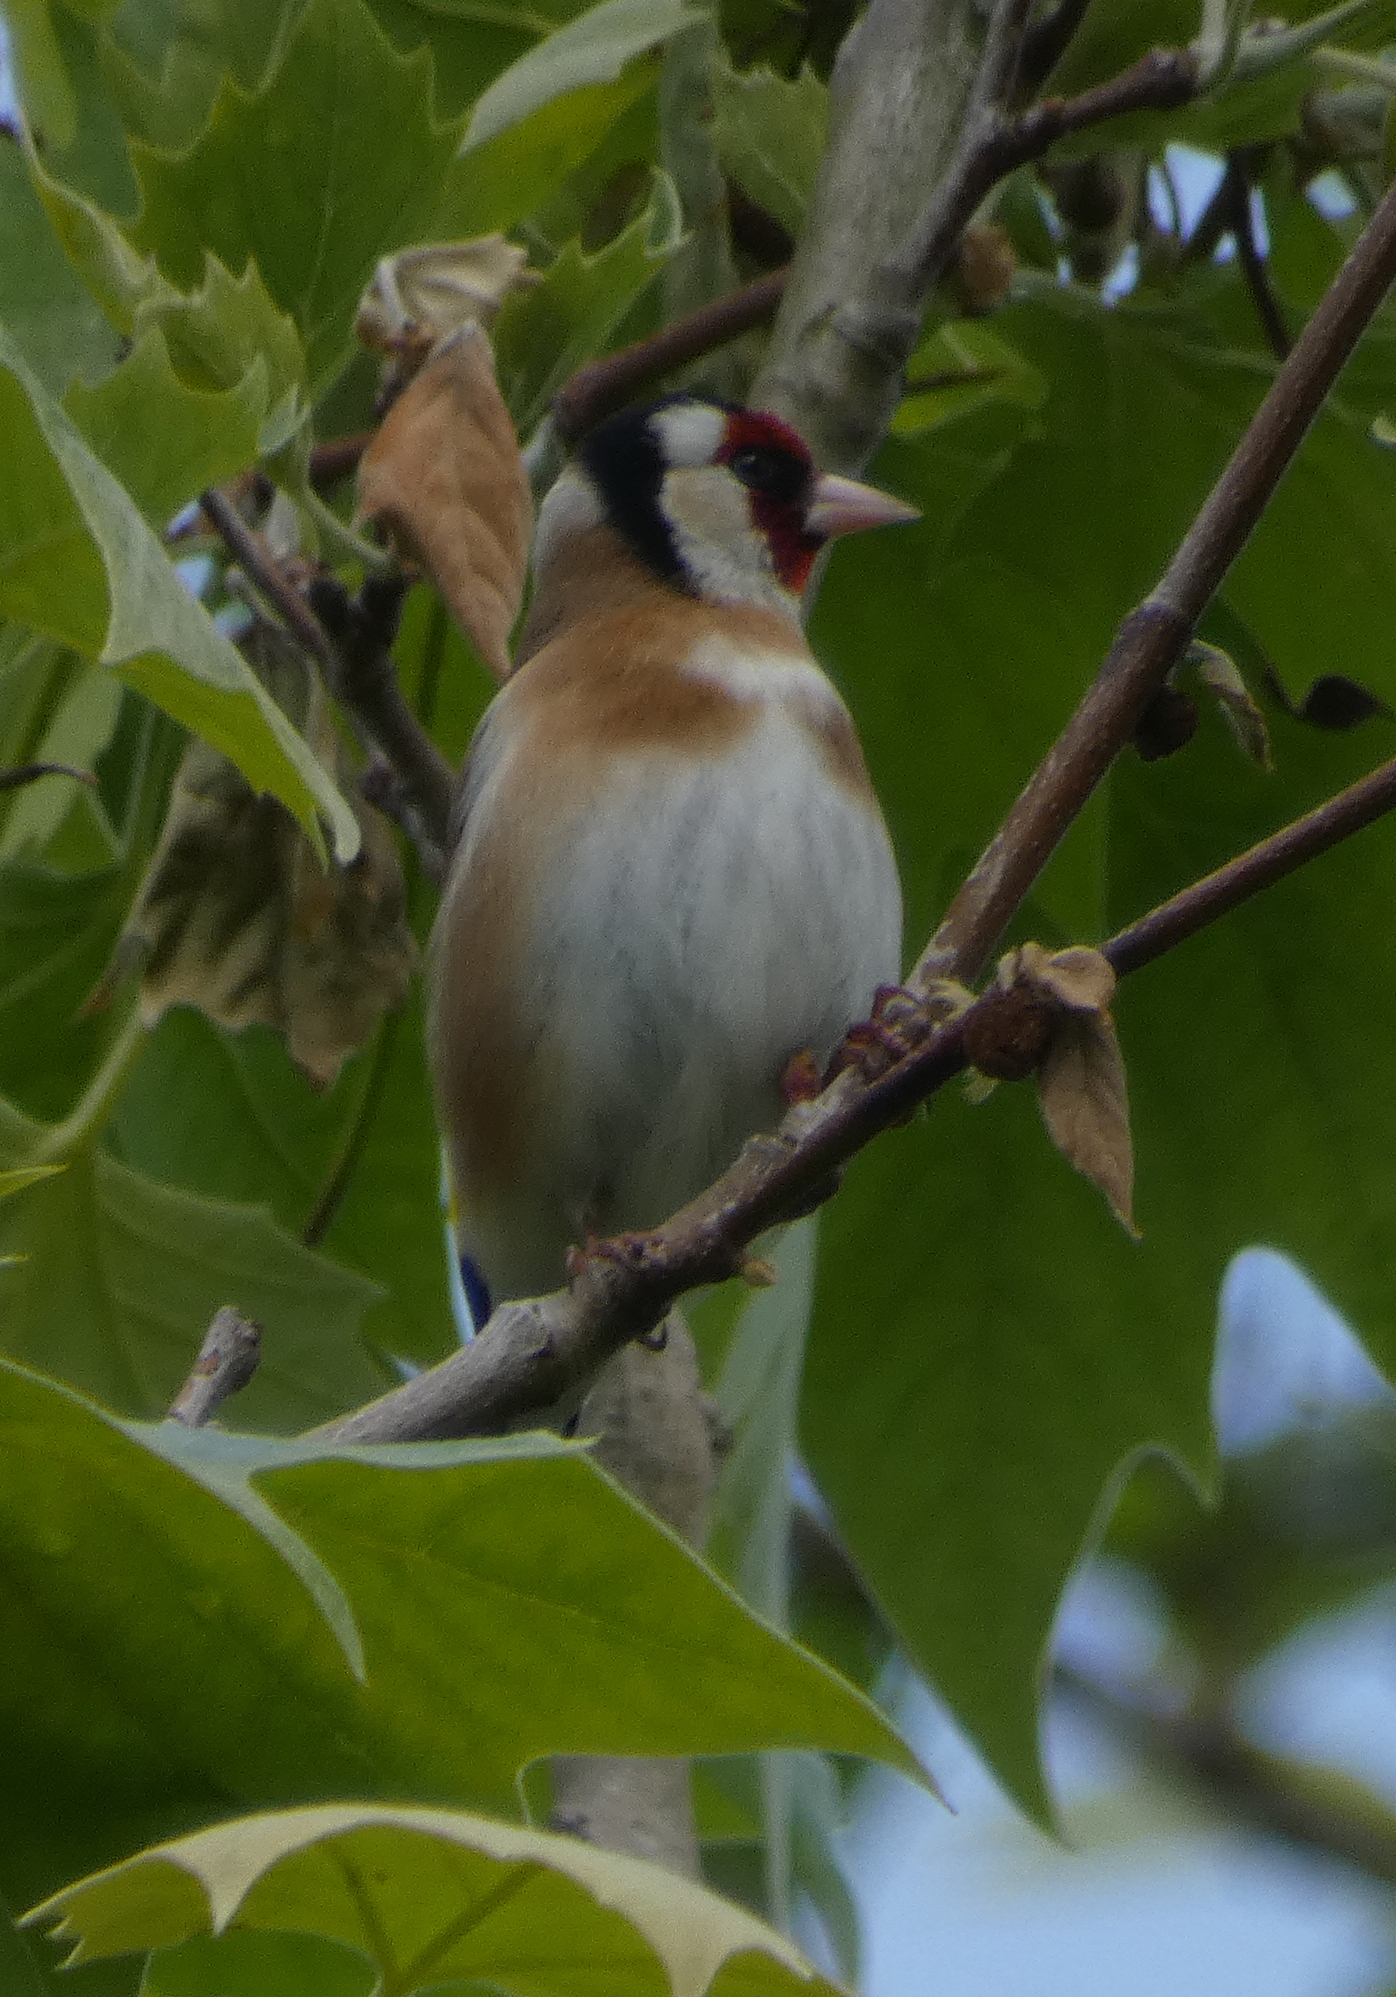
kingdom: Animalia
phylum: Chordata
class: Aves
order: Passeriformes
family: Fringillidae
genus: Carduelis
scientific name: Carduelis carduelis
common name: European goldfinch
